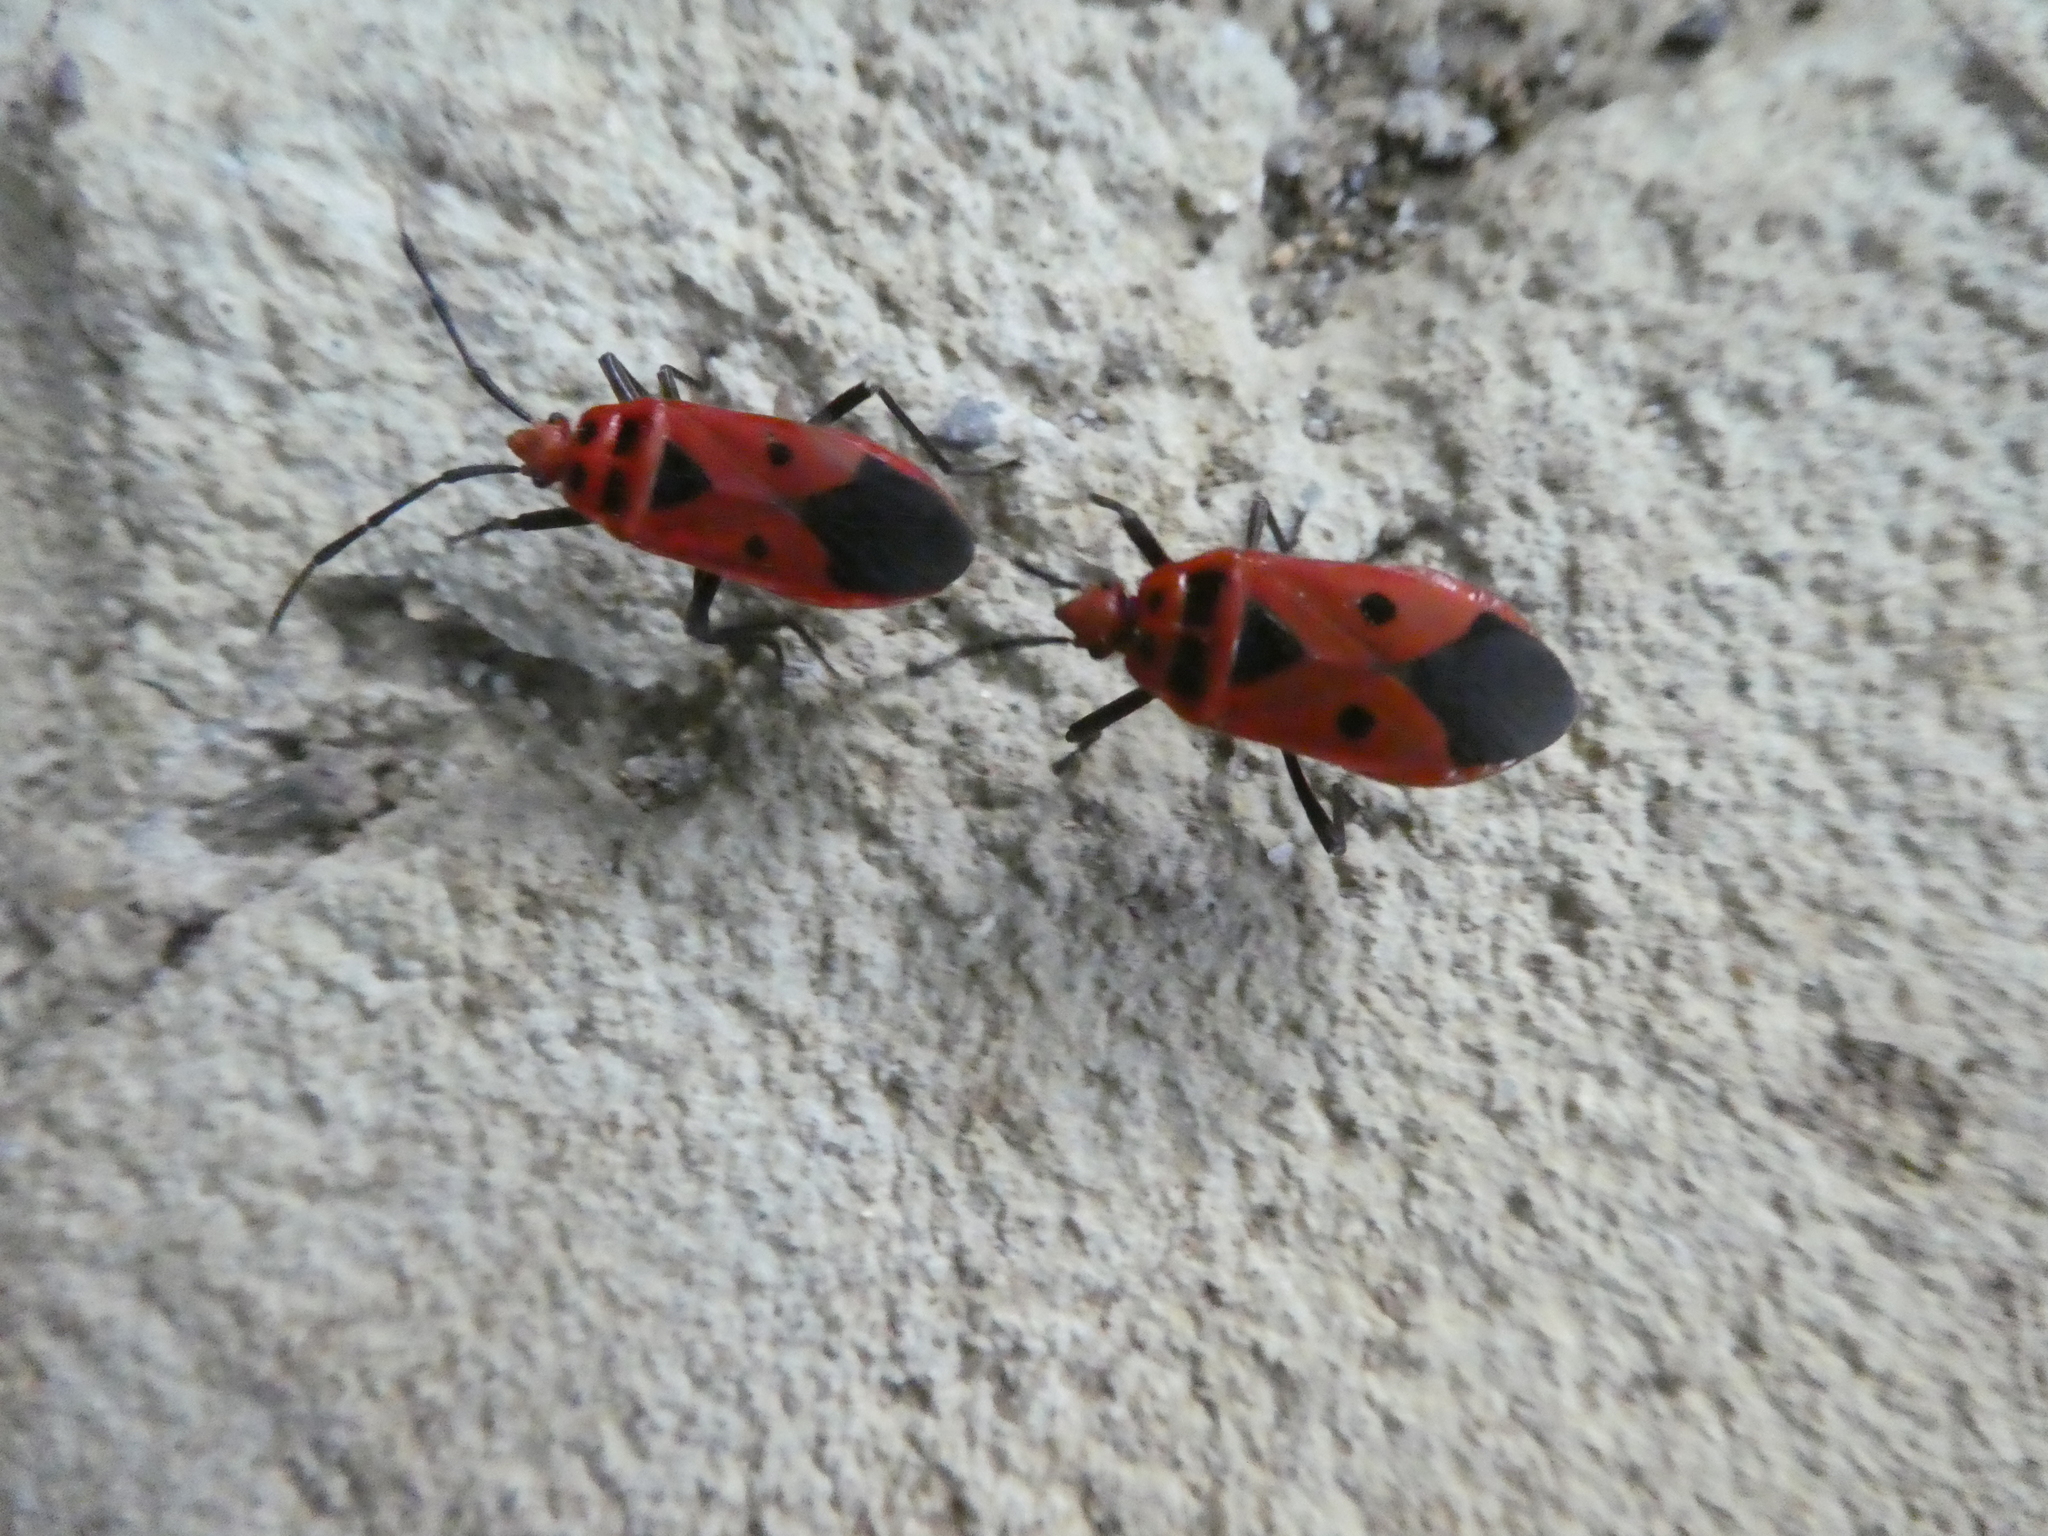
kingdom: Animalia
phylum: Arthropoda
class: Insecta
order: Hemiptera
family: Largidae
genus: Physopelta
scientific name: Physopelta slanbuschii
